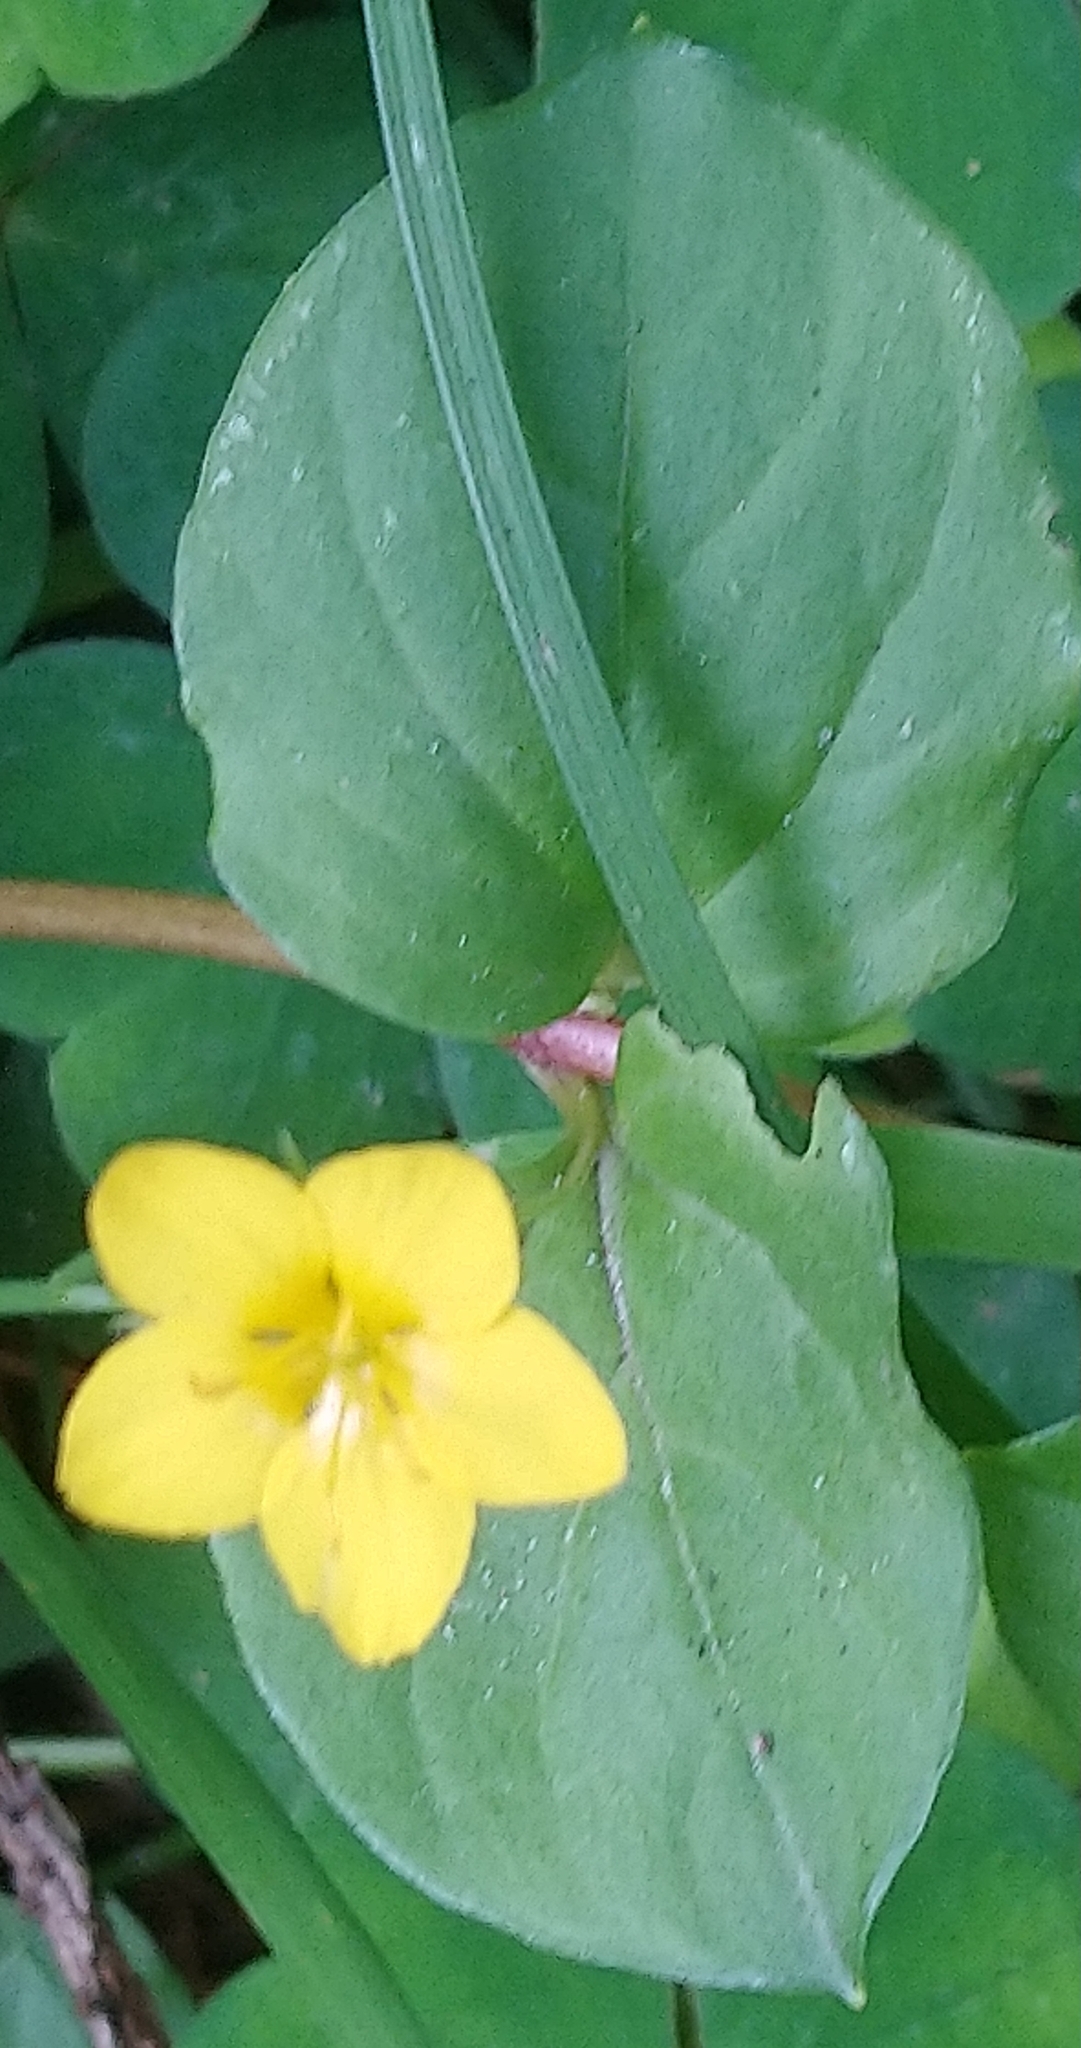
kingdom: Plantae
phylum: Tracheophyta
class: Magnoliopsida
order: Ericales
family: Primulaceae
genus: Lysimachia
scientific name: Lysimachia nemorum
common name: Yellow pimpernel
